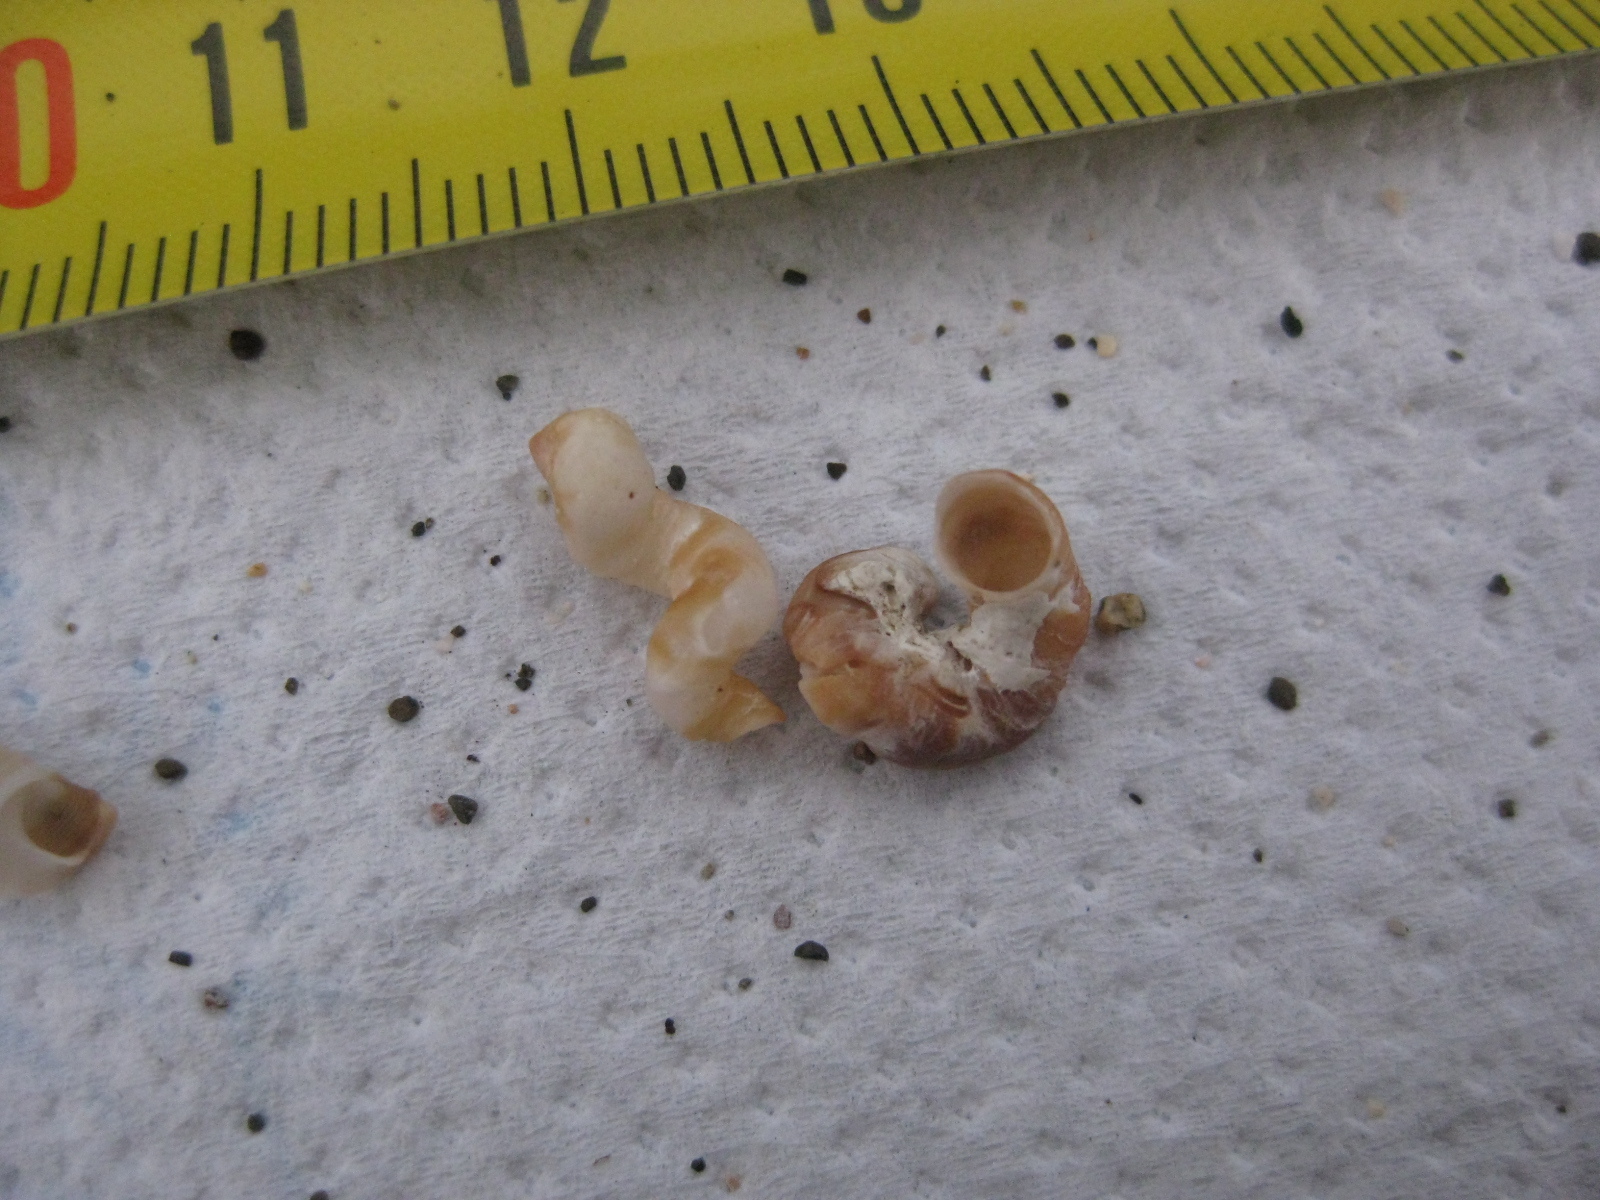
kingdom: Animalia
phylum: Mollusca
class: Gastropoda
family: Siliquariidae
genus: Stephopoma
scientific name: Stephopoma roseum
